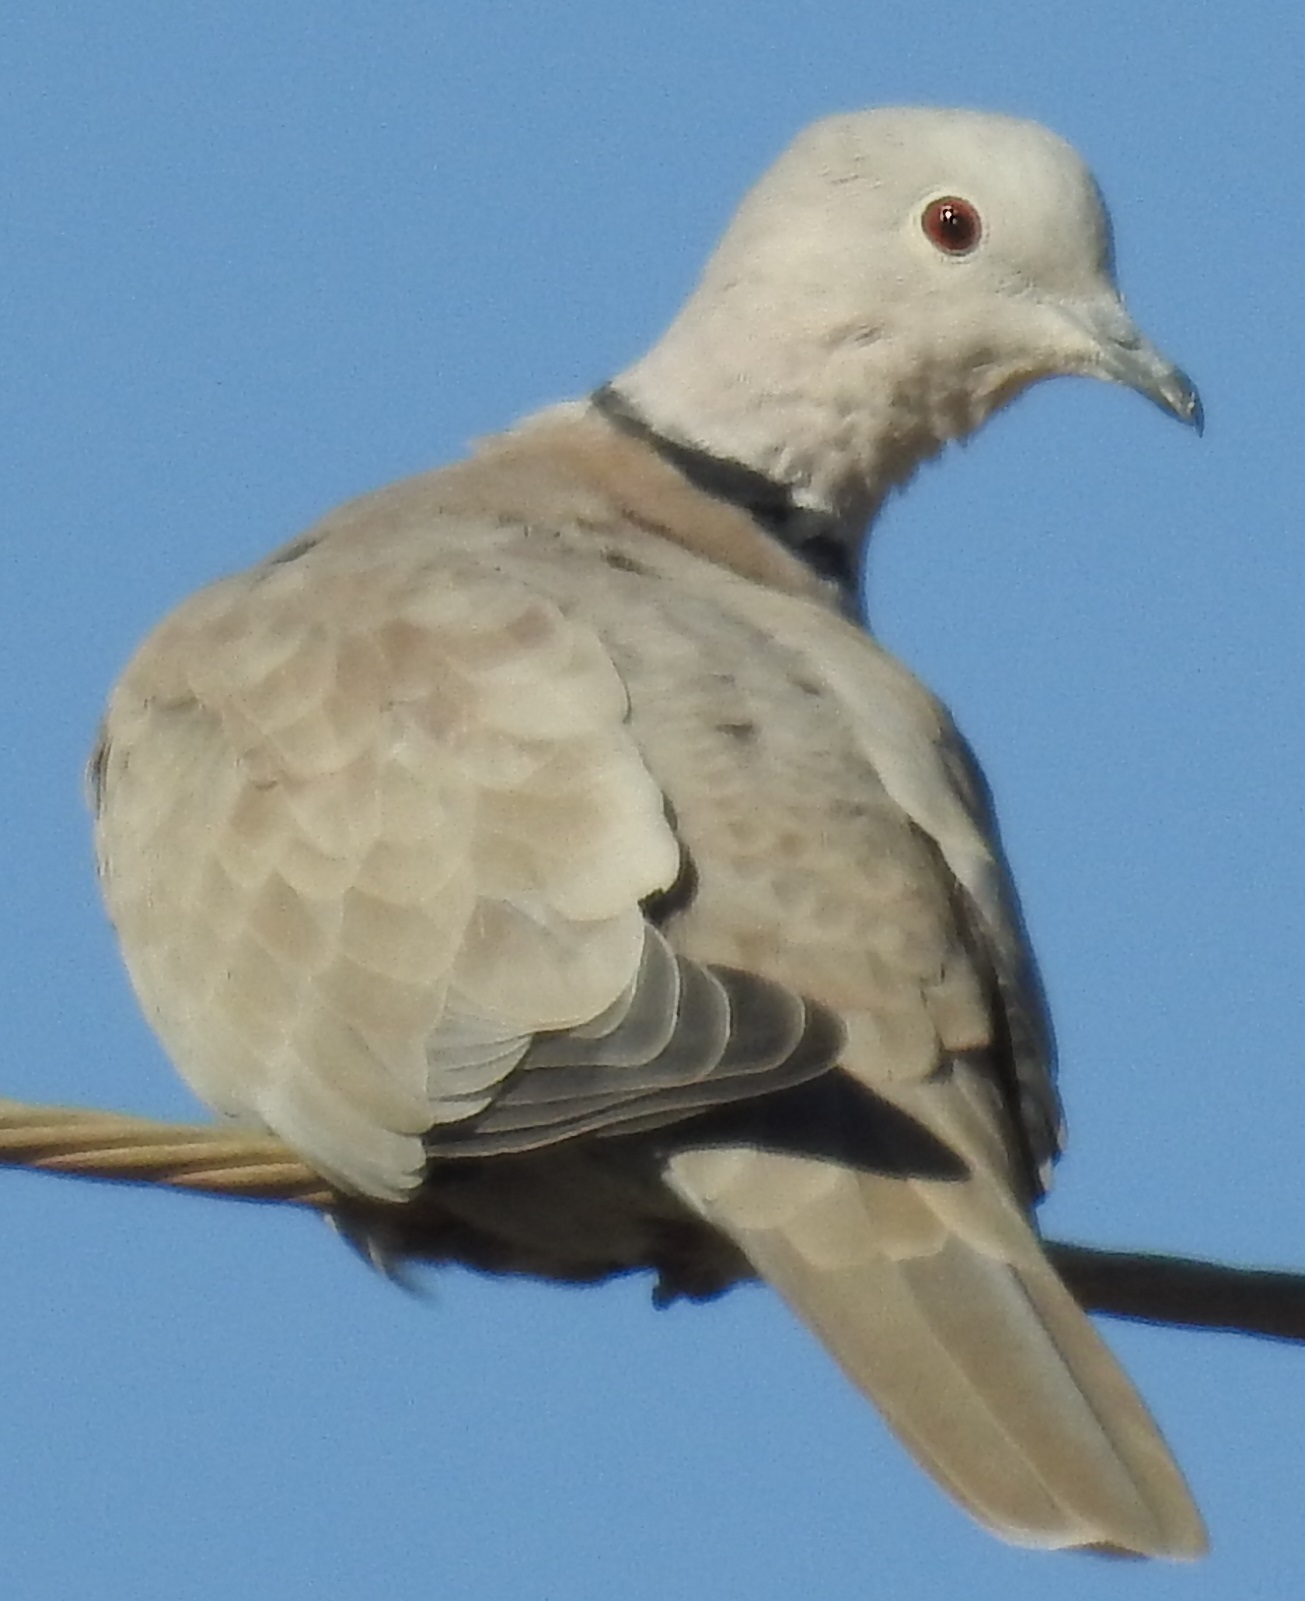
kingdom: Animalia
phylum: Chordata
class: Aves
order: Columbiformes
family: Columbidae
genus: Streptopelia
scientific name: Streptopelia decaocto
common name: Eurasian collared dove
